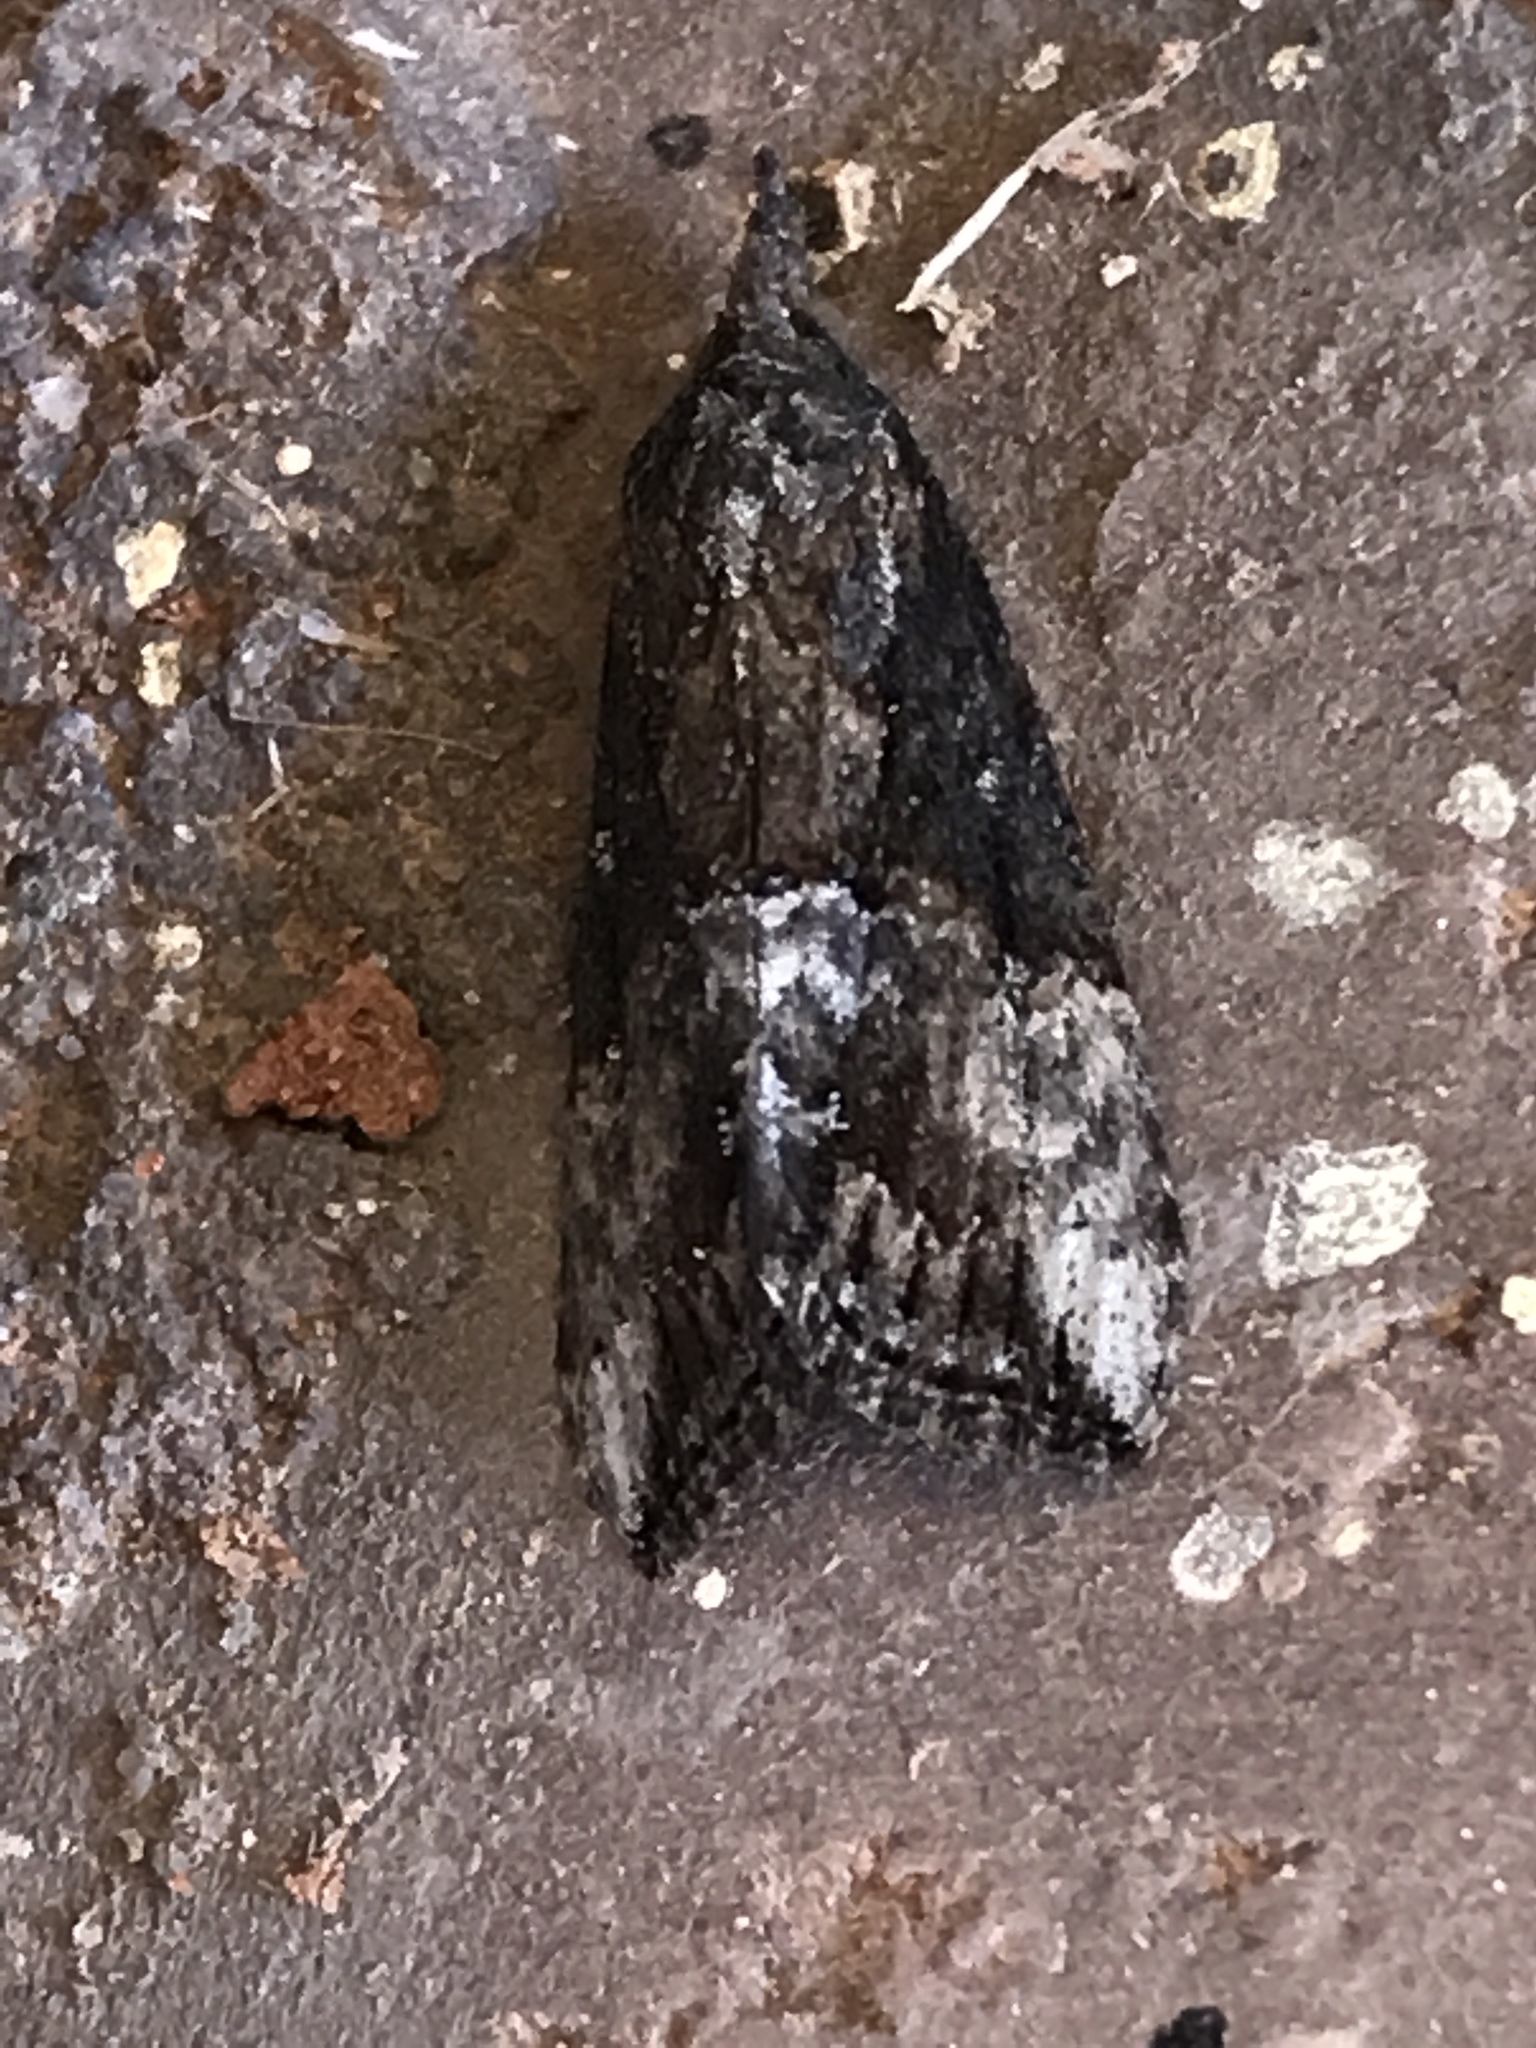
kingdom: Animalia
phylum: Arthropoda
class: Insecta
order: Lepidoptera
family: Erebidae
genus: Hypena
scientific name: Hypena scabra
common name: Green cloverworm
